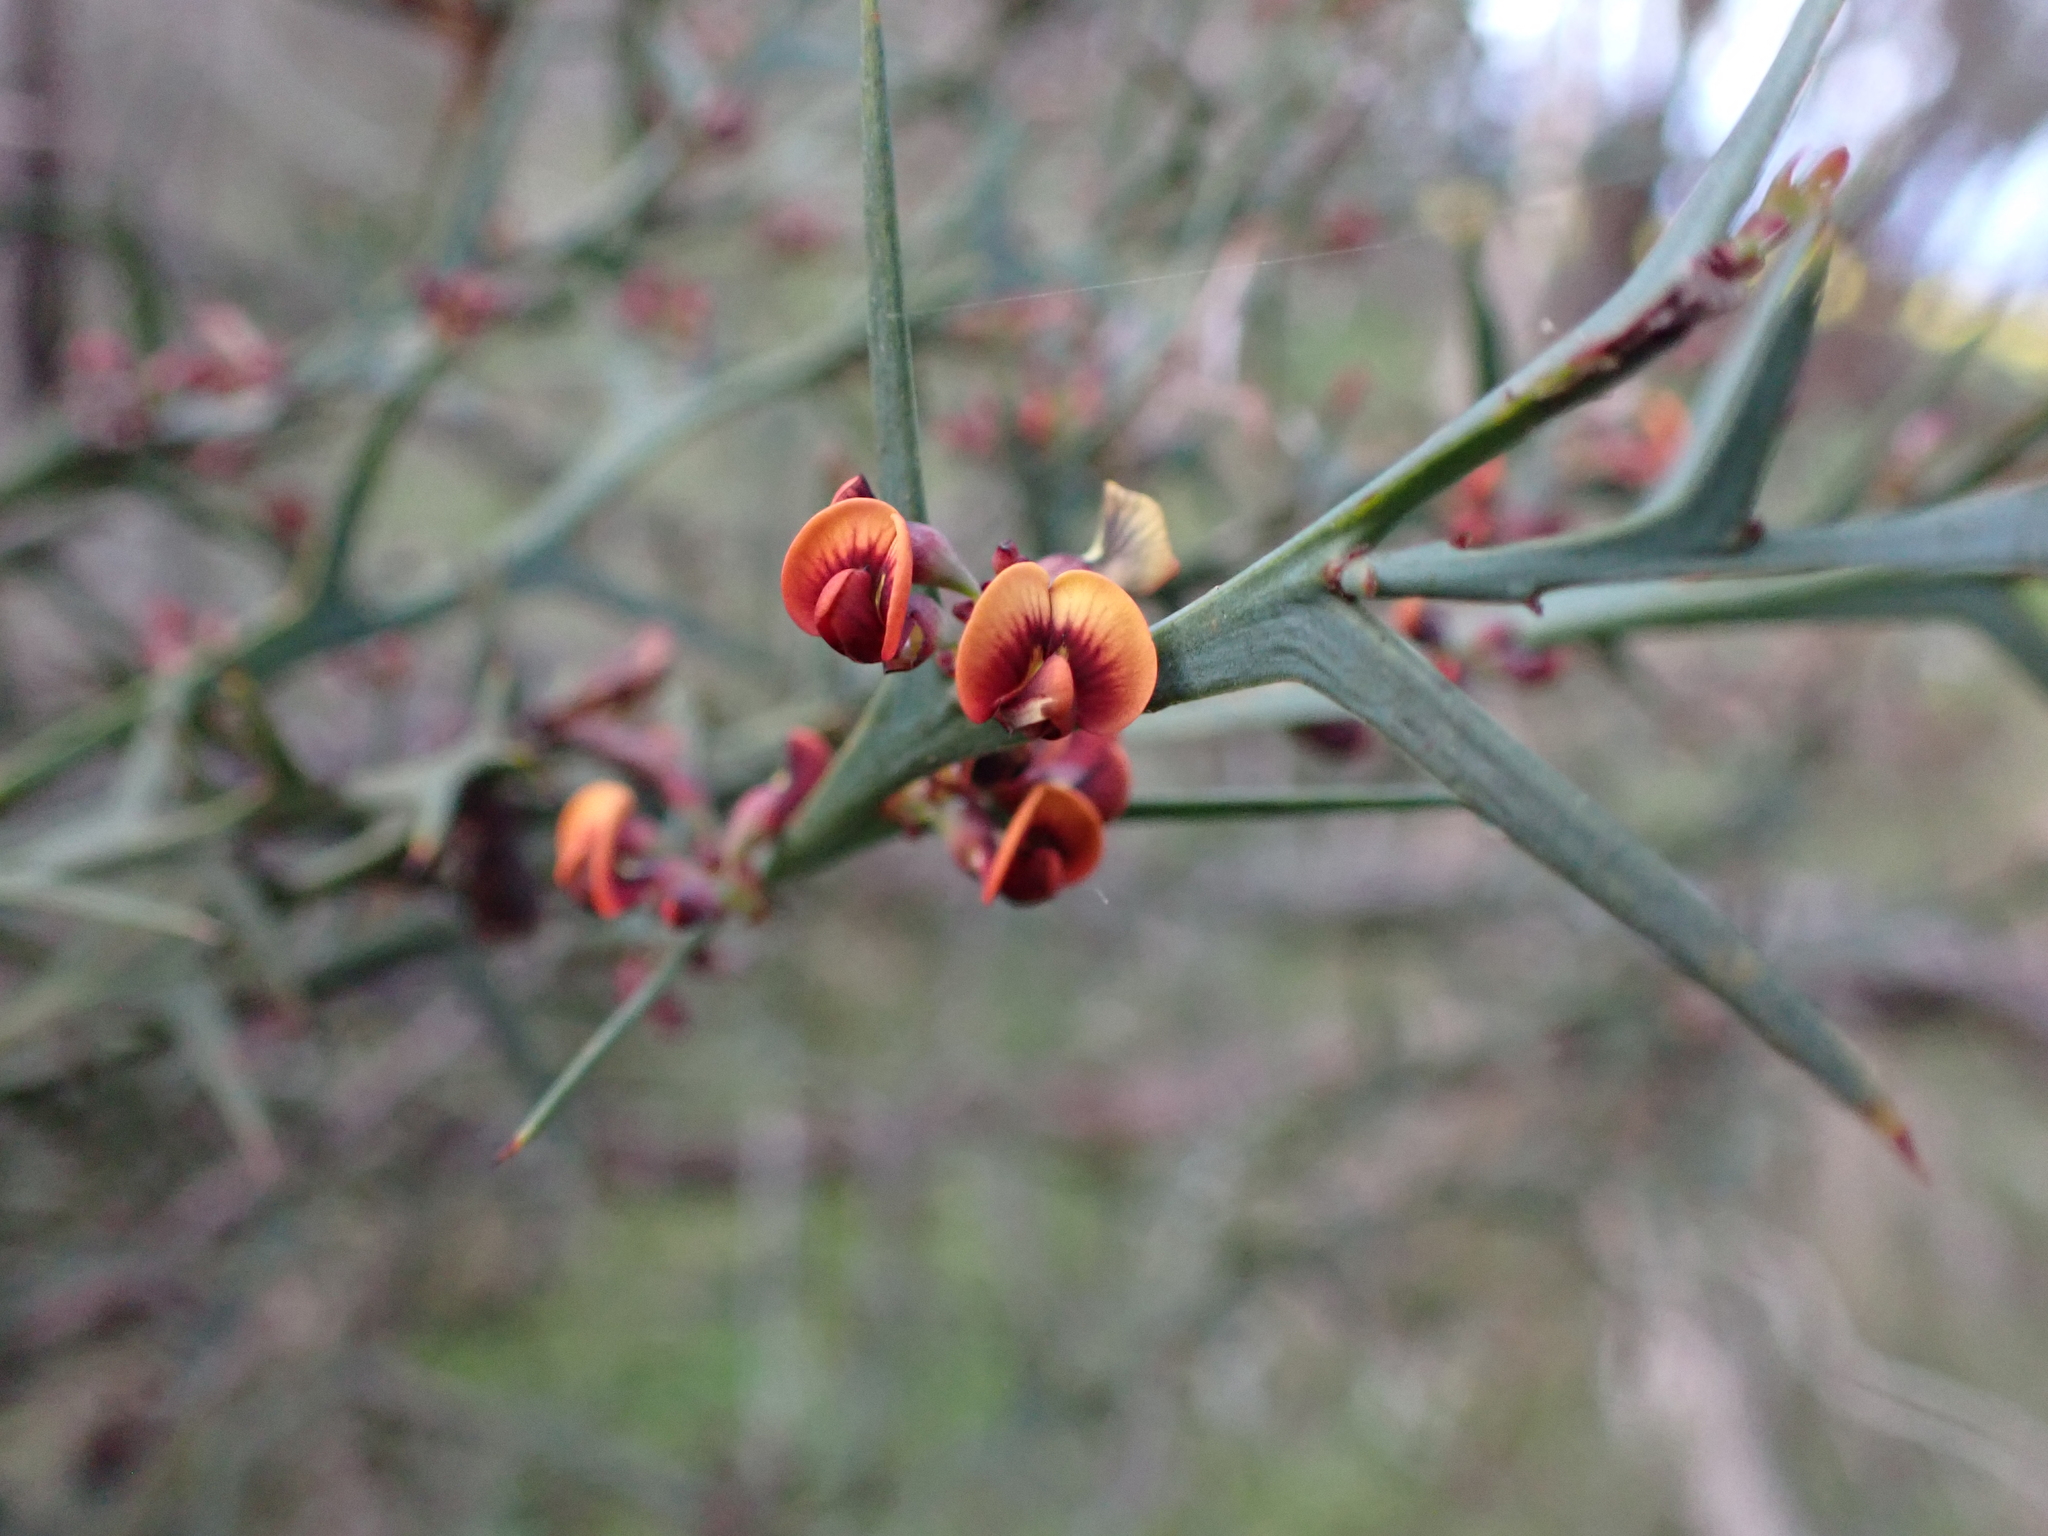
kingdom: Plantae
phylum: Tracheophyta
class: Magnoliopsida
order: Fabales
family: Fabaceae
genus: Daviesia
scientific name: Daviesia pectinata
